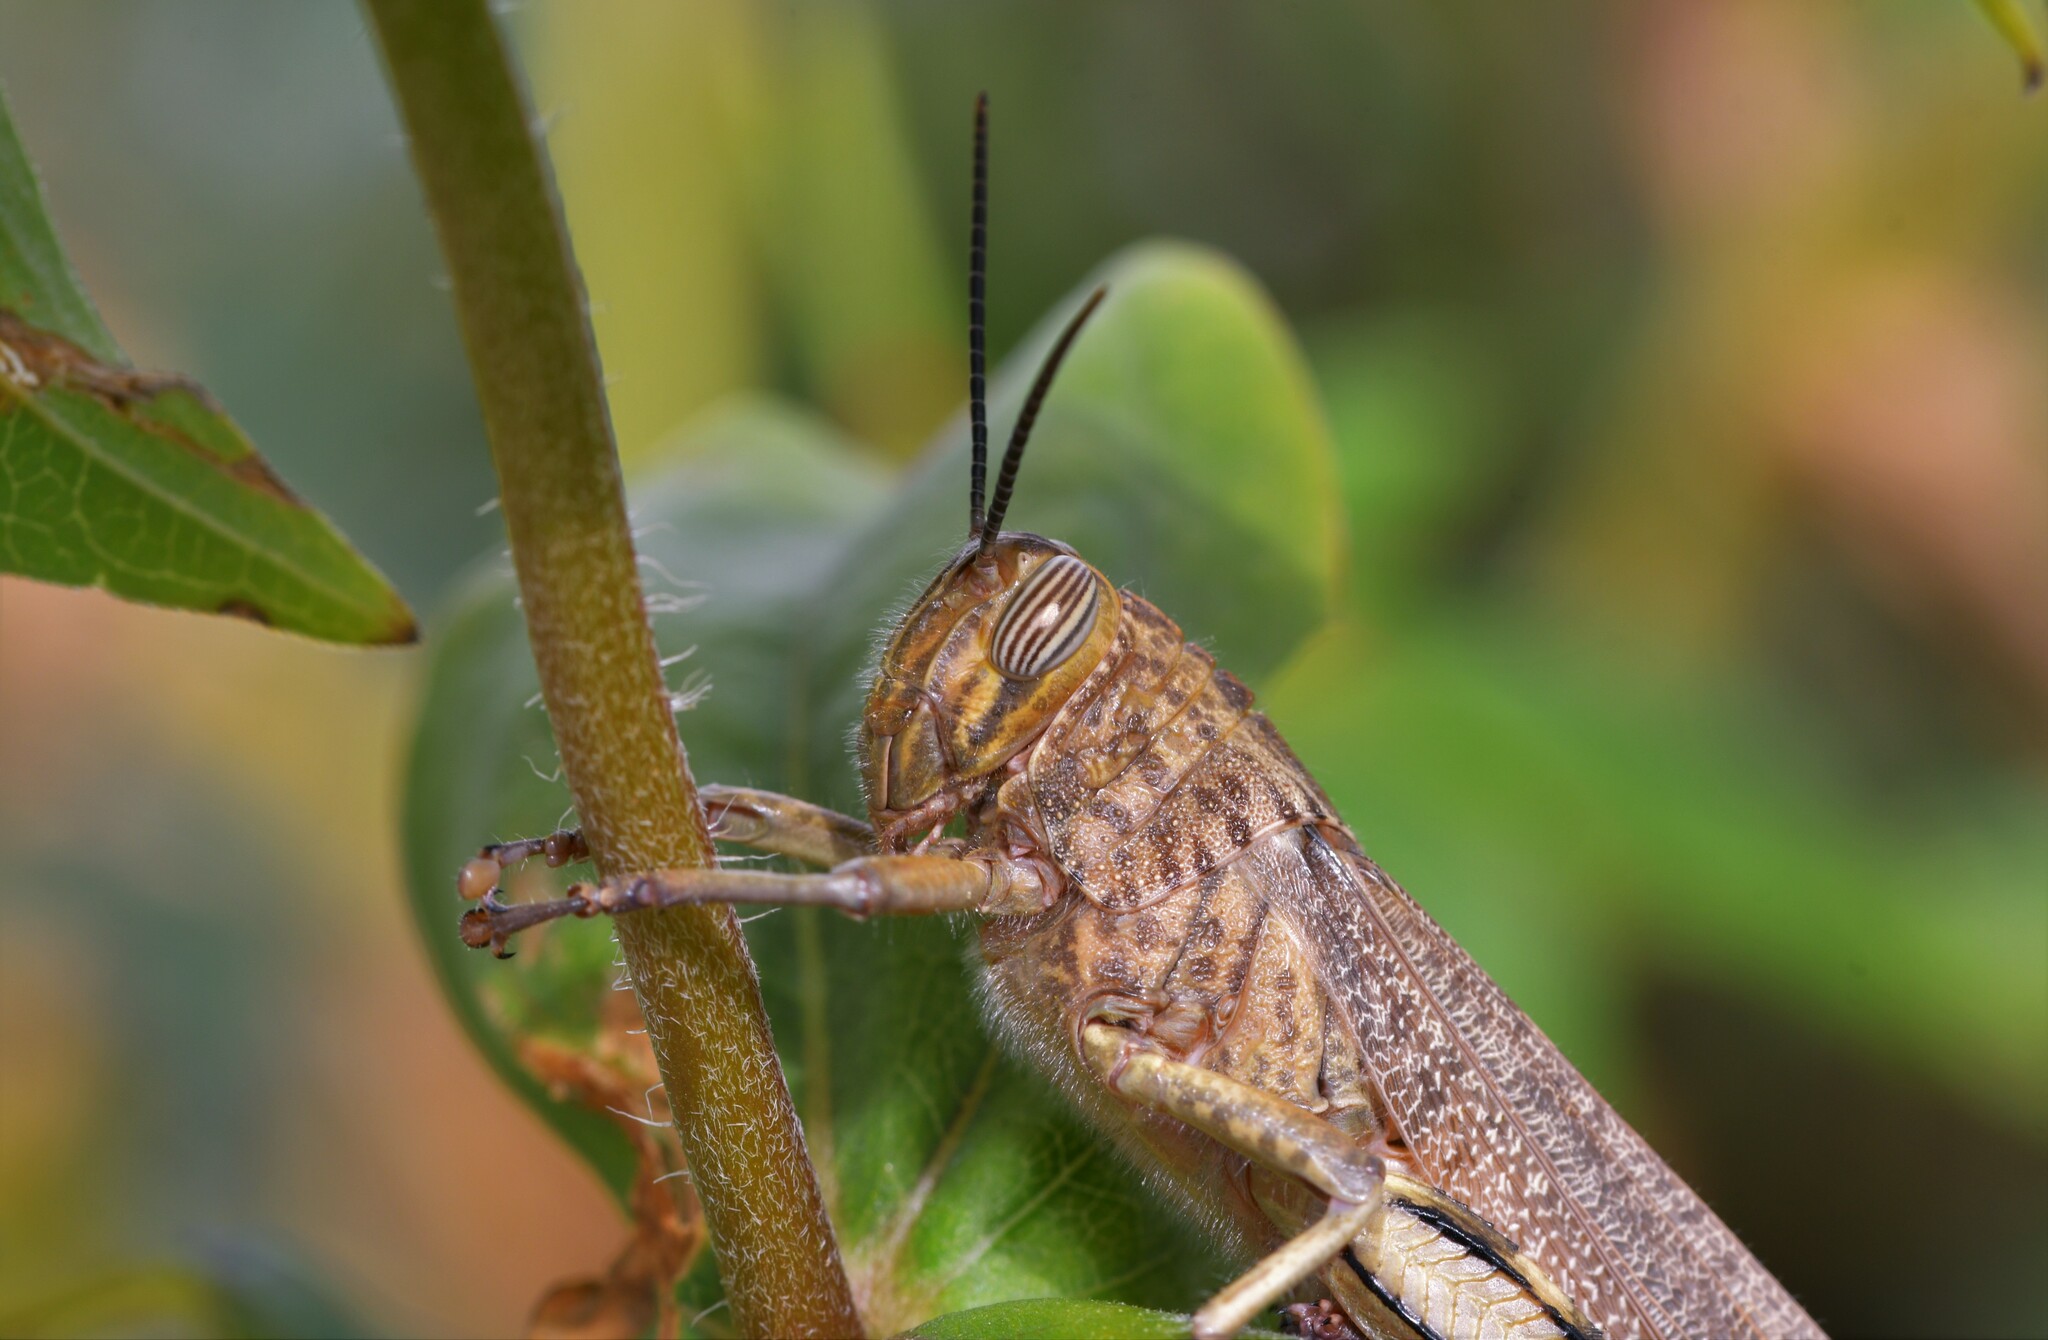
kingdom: Animalia
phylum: Arthropoda
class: Insecta
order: Orthoptera
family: Acrididae
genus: Anacridium
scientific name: Anacridium aegyptium
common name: Egyptian grasshopper
